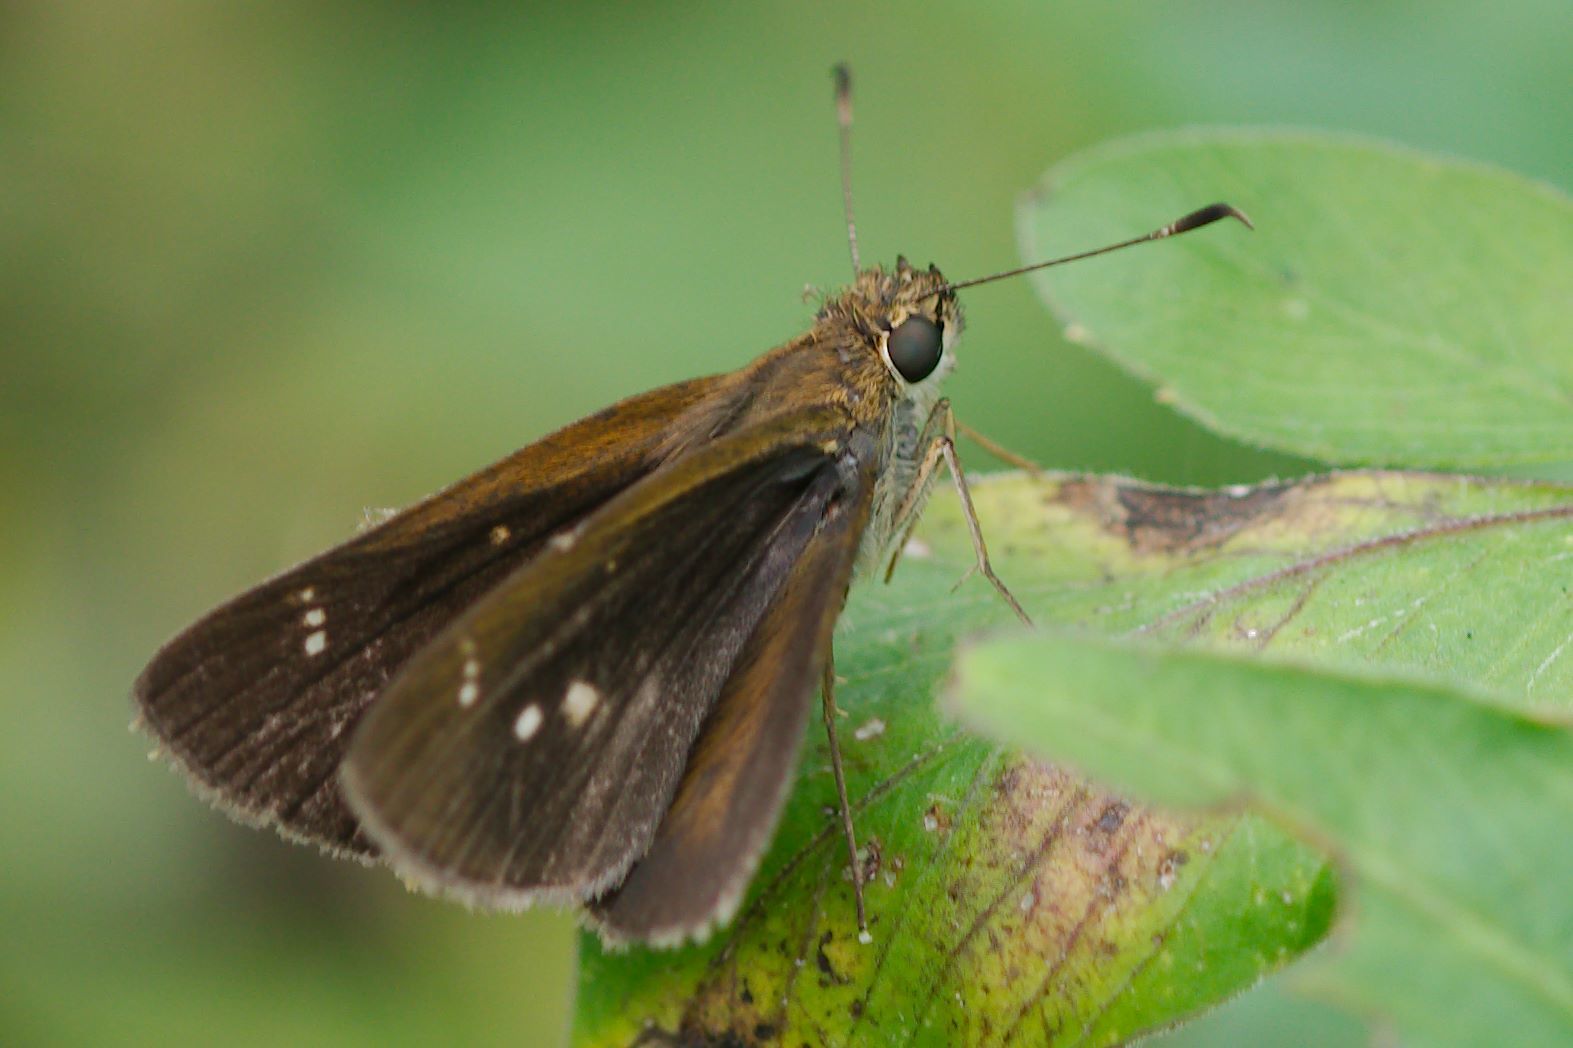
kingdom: Animalia
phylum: Arthropoda
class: Insecta
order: Lepidoptera
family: Hesperiidae
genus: Cymaenes
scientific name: Cymaenes tripunctus
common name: Dingy dotted skipper
